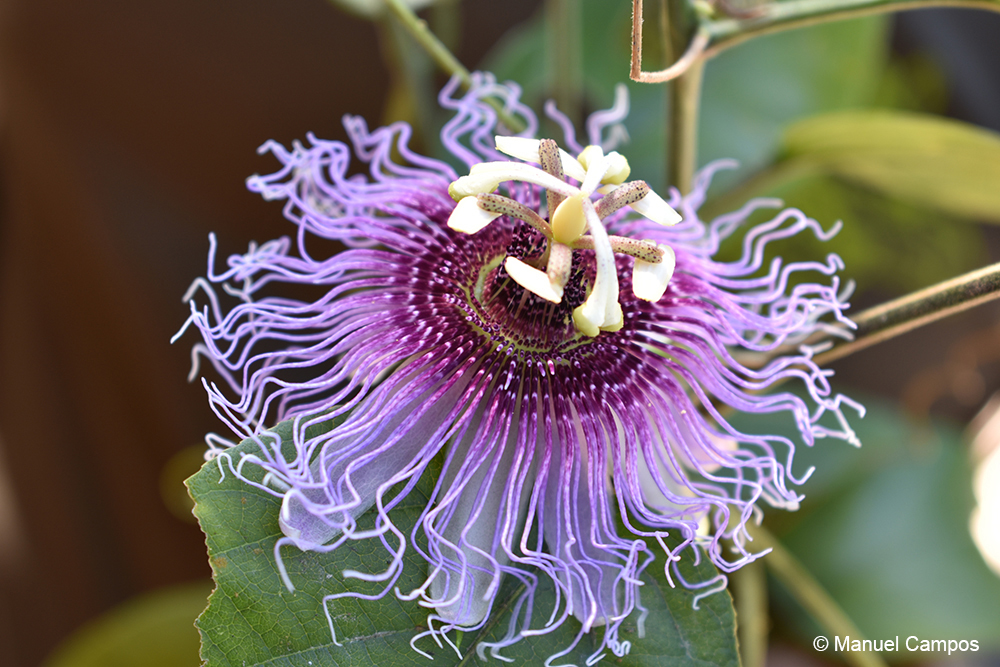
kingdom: Plantae
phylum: Tracheophyta
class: Magnoliopsida
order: Malpighiales
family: Passifloraceae
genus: Passiflora
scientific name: Passiflora serratifolia
